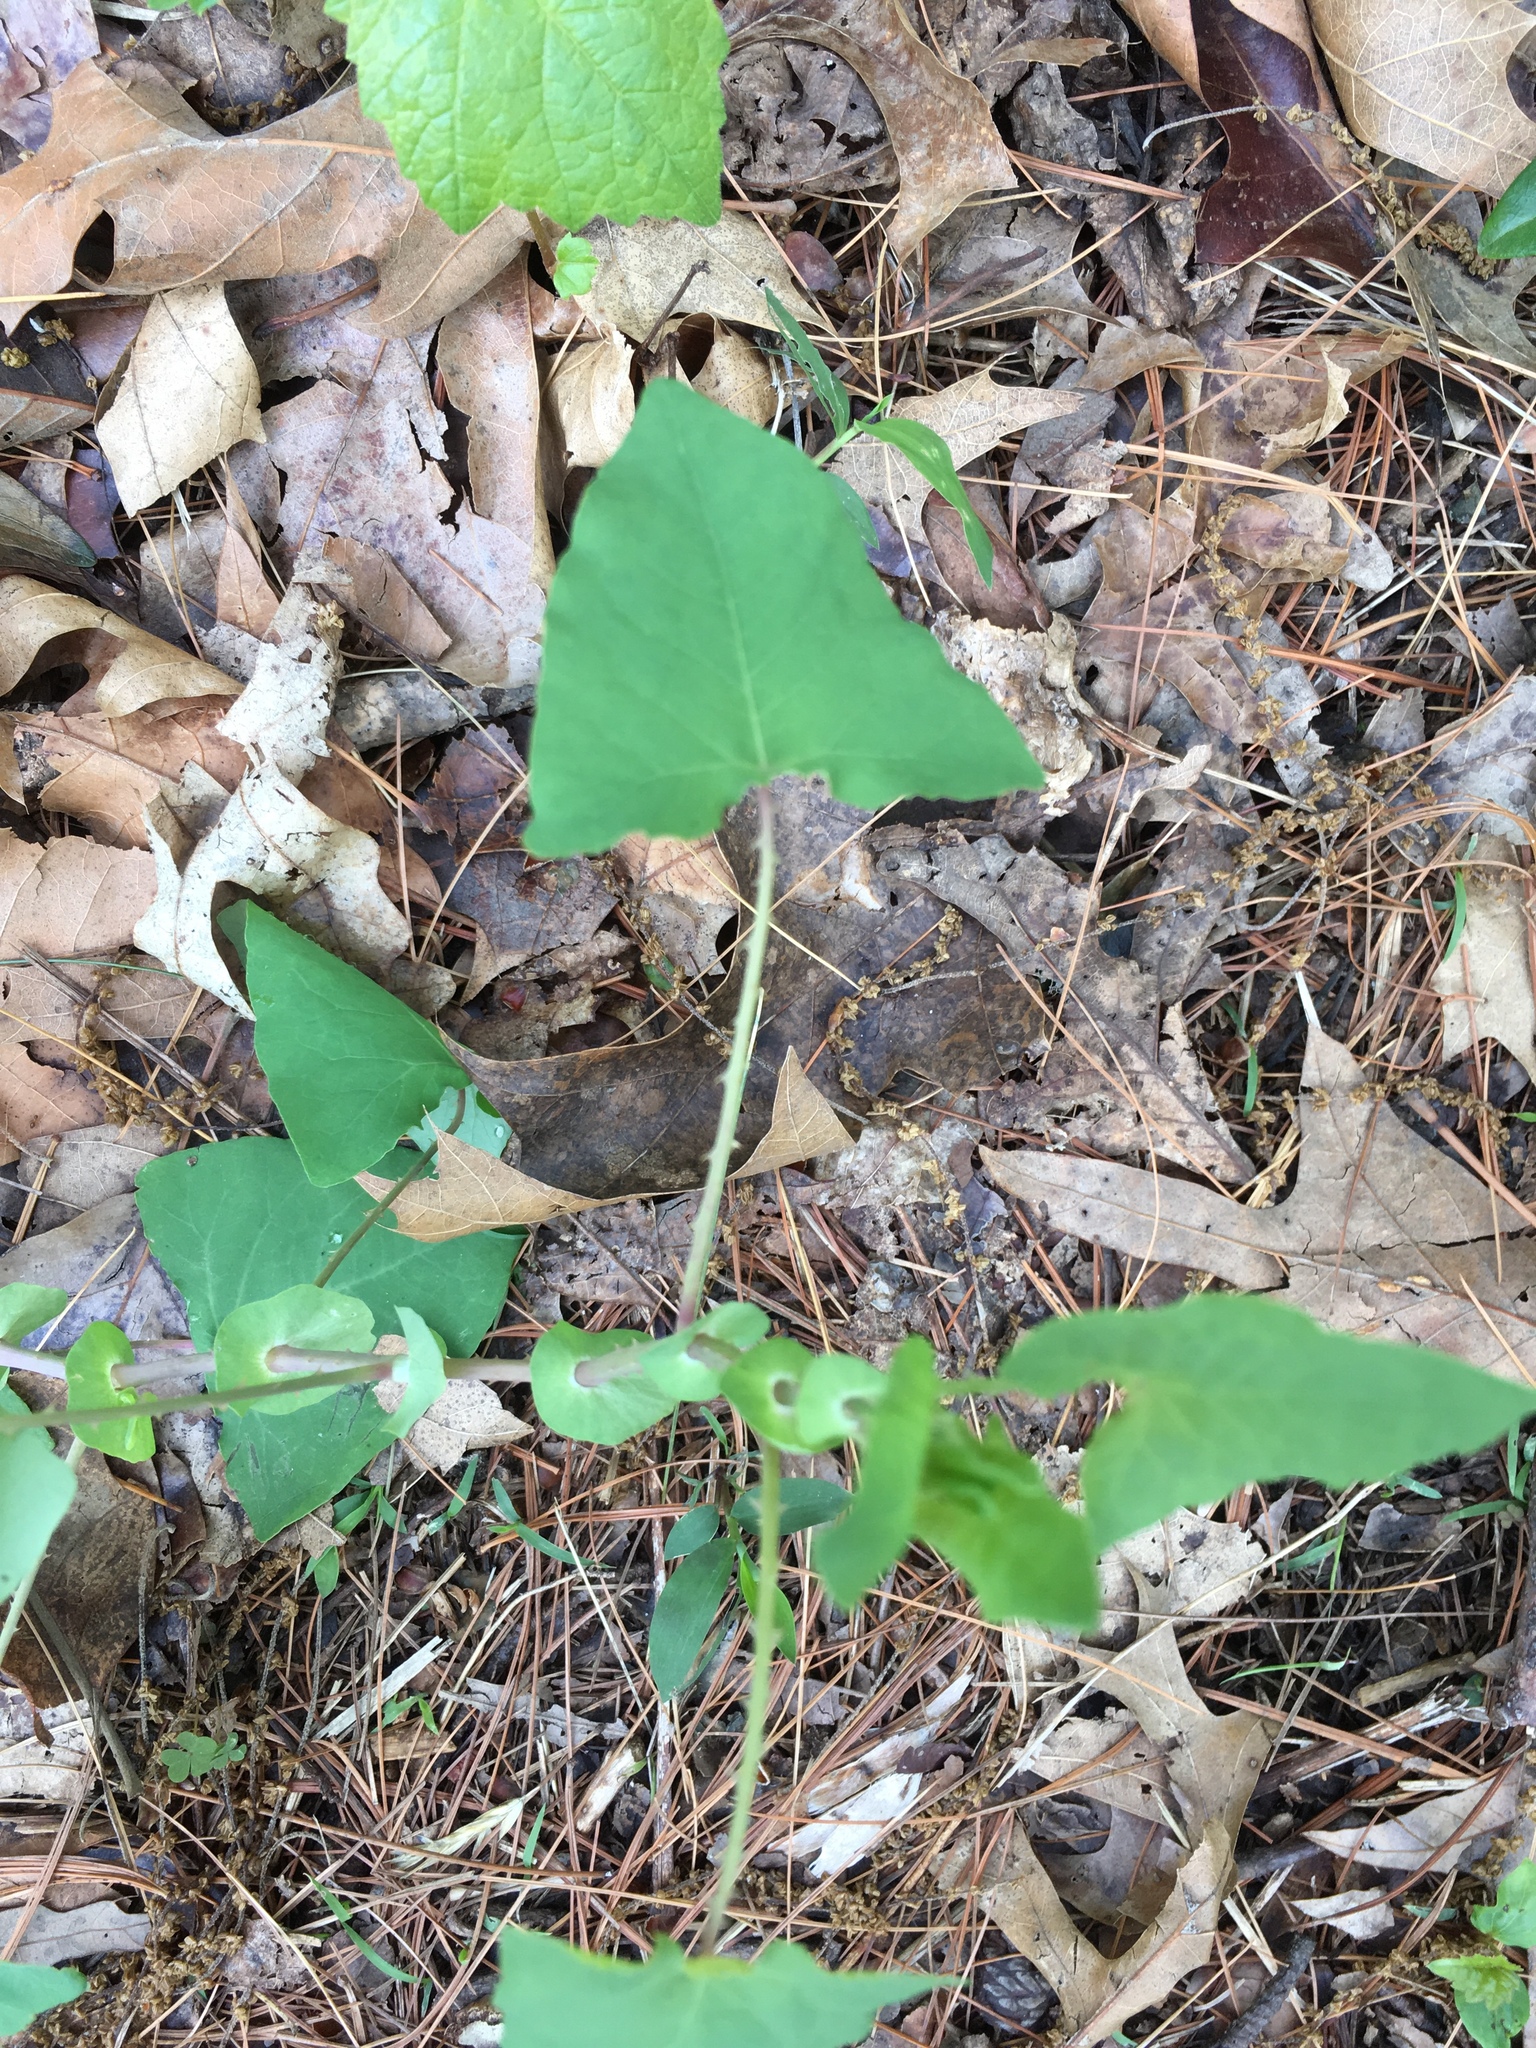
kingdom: Plantae
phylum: Tracheophyta
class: Magnoliopsida
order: Caryophyllales
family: Polygonaceae
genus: Persicaria
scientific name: Persicaria perfoliata
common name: Asiatic tearthumb
